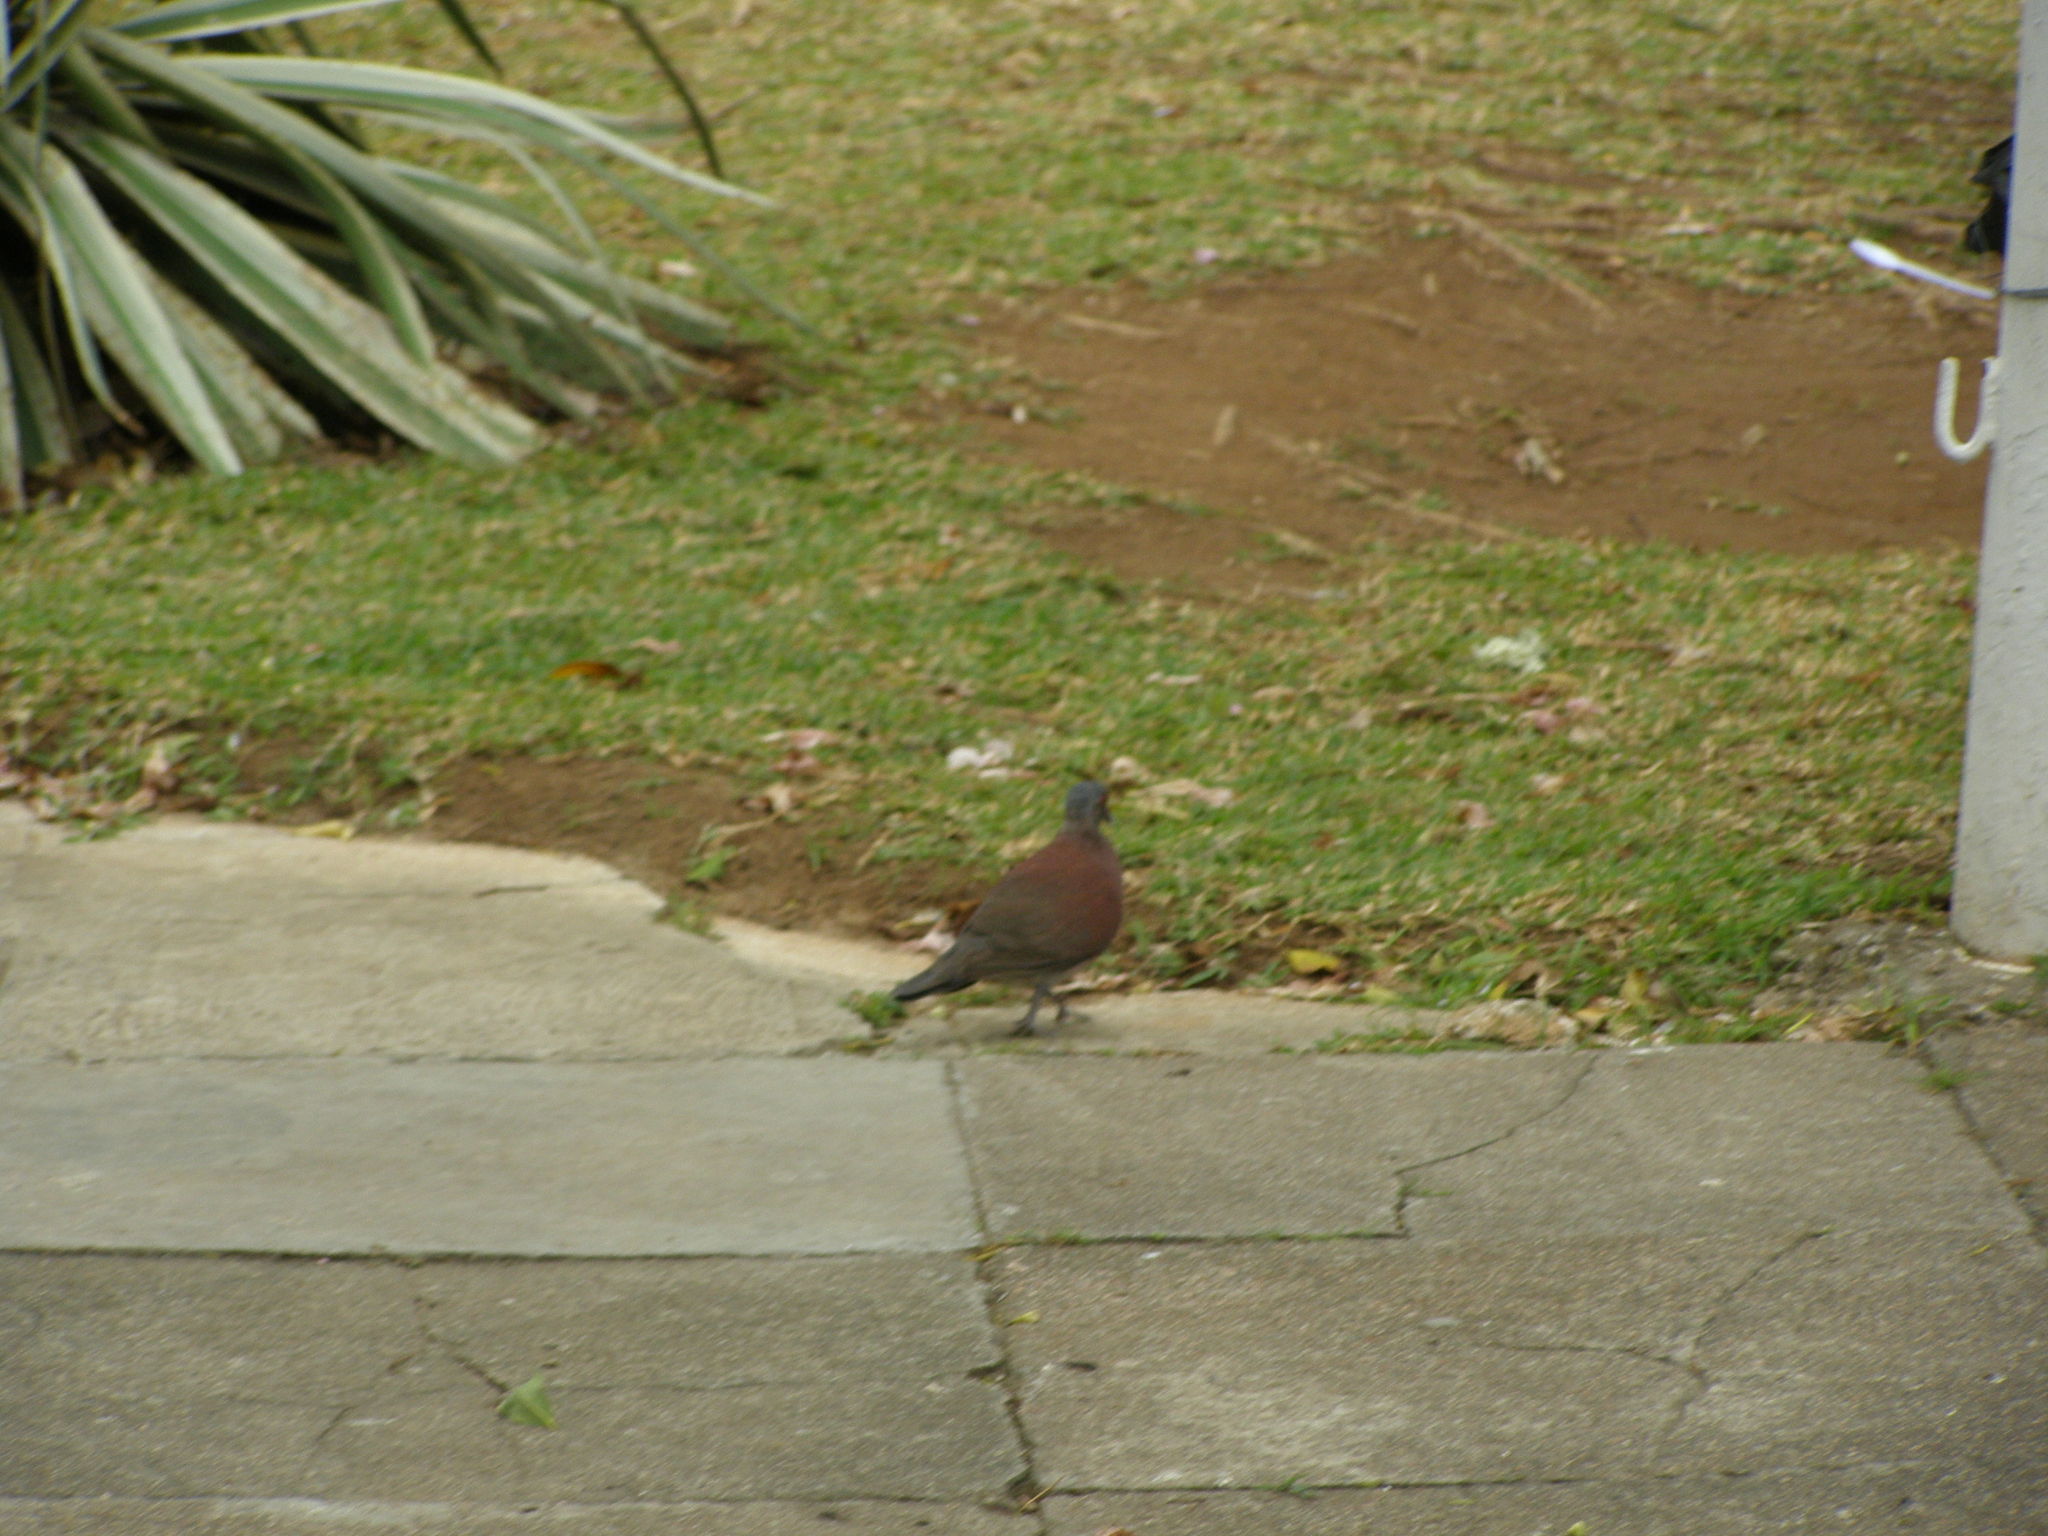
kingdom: Animalia
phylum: Chordata
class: Aves
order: Columbiformes
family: Columbidae
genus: Nesoenas
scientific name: Nesoenas picturatus
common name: Malagasy turtle dove
